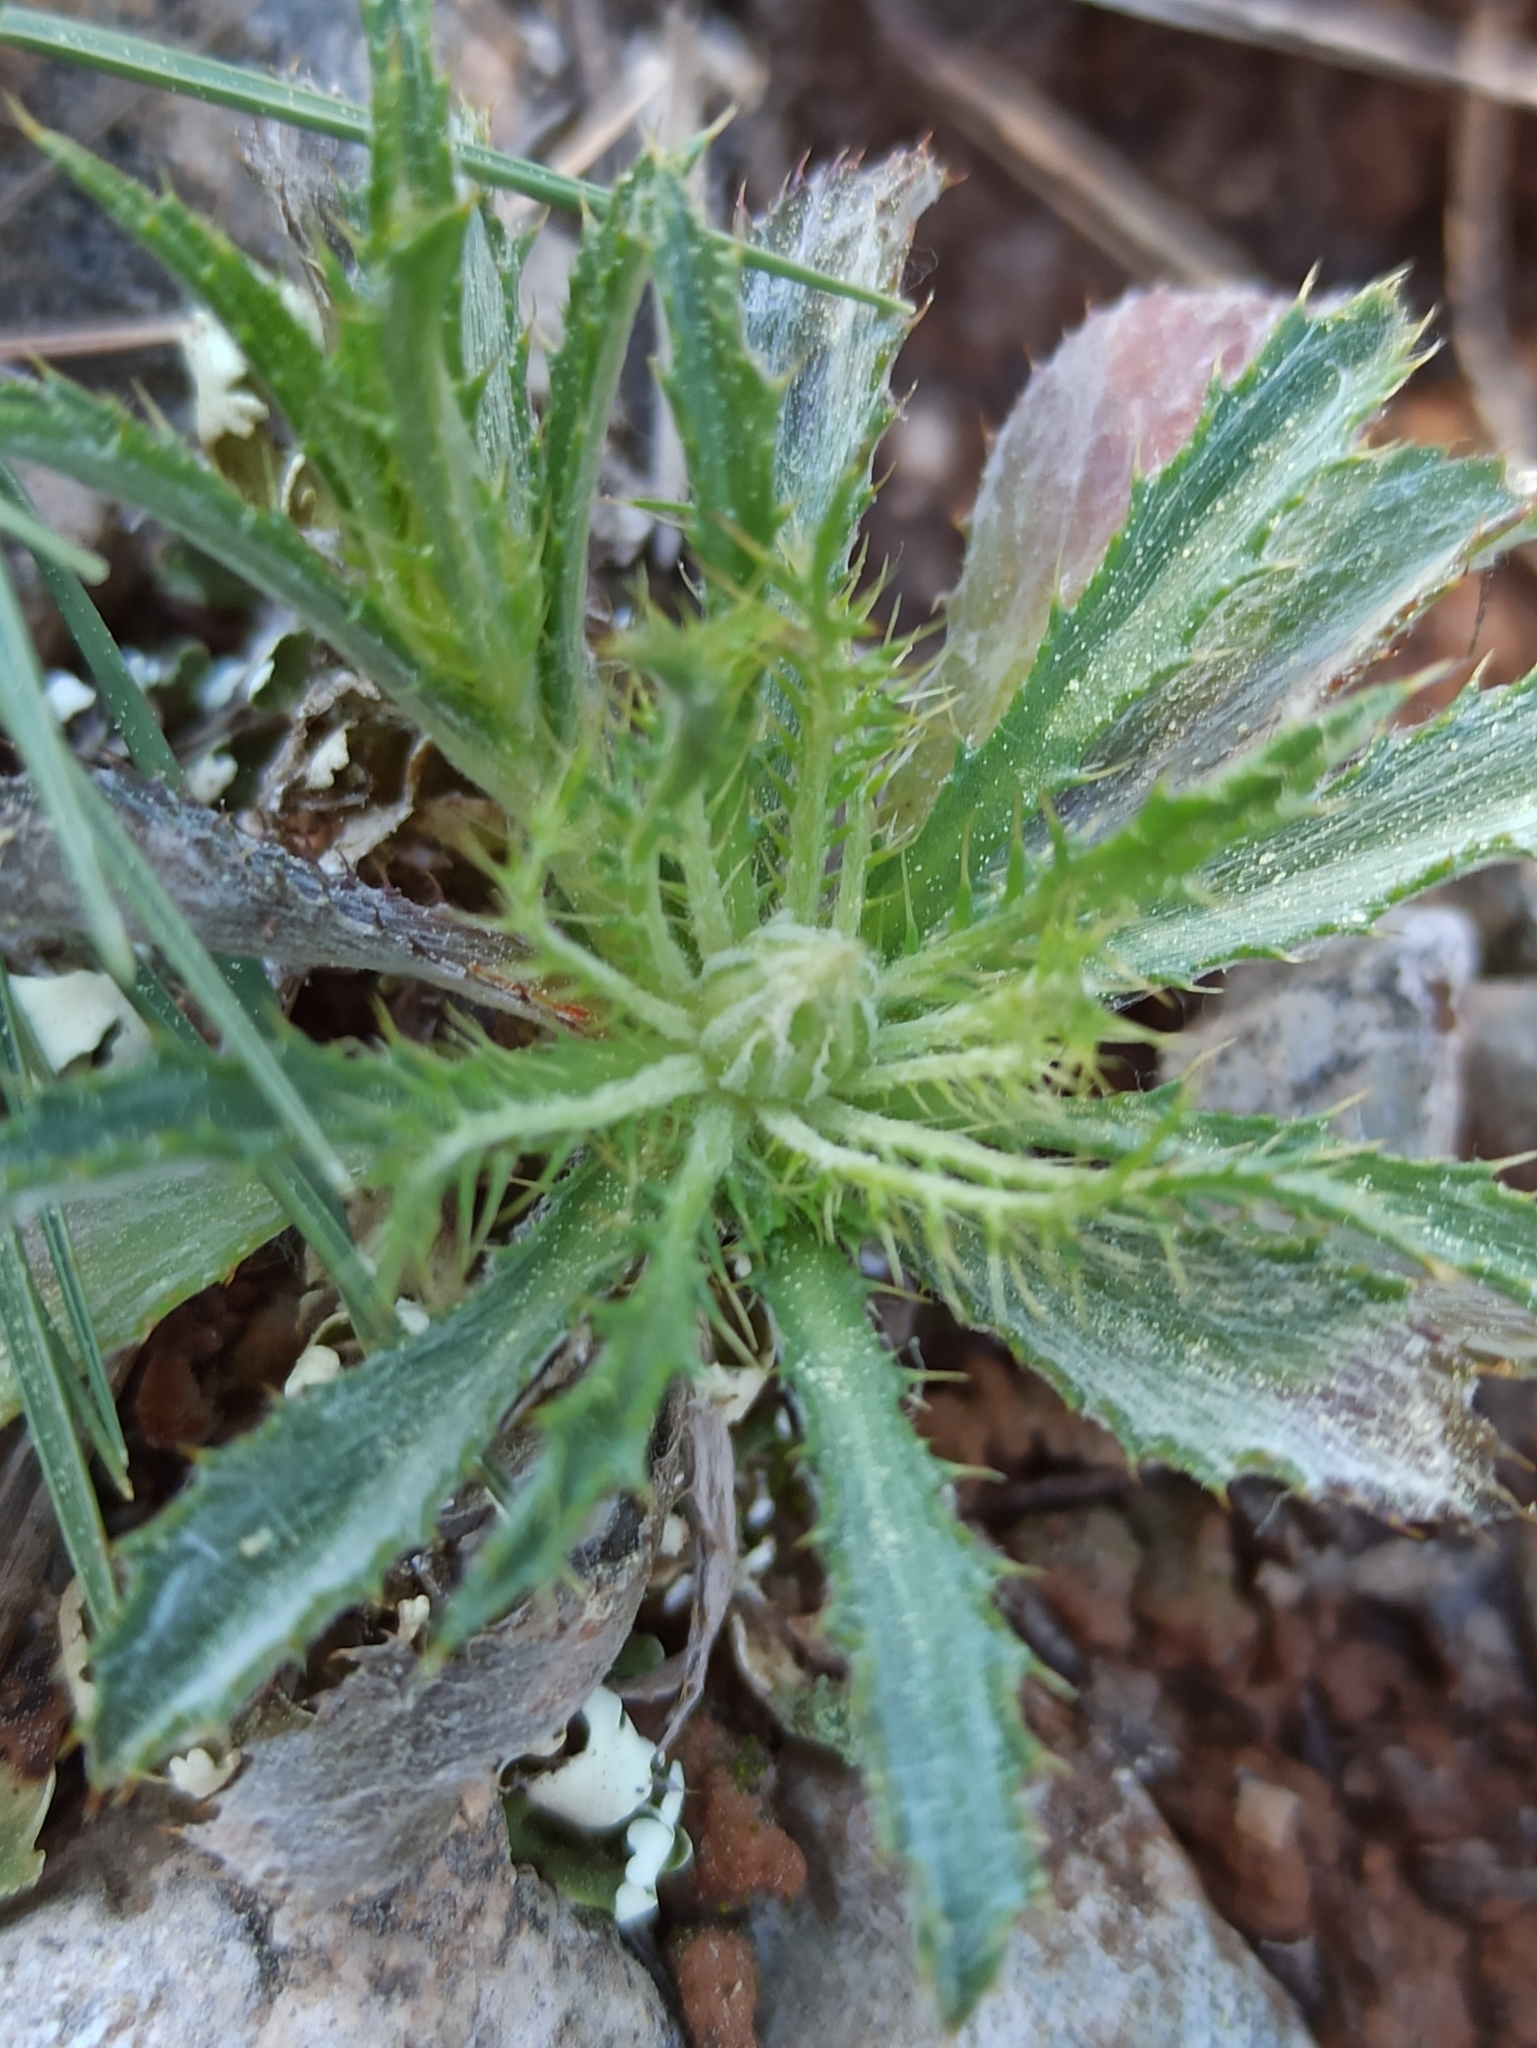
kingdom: Plantae
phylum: Tracheophyta
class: Magnoliopsida
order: Asterales
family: Asteraceae
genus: Atractylis
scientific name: Atractylis cancellata
